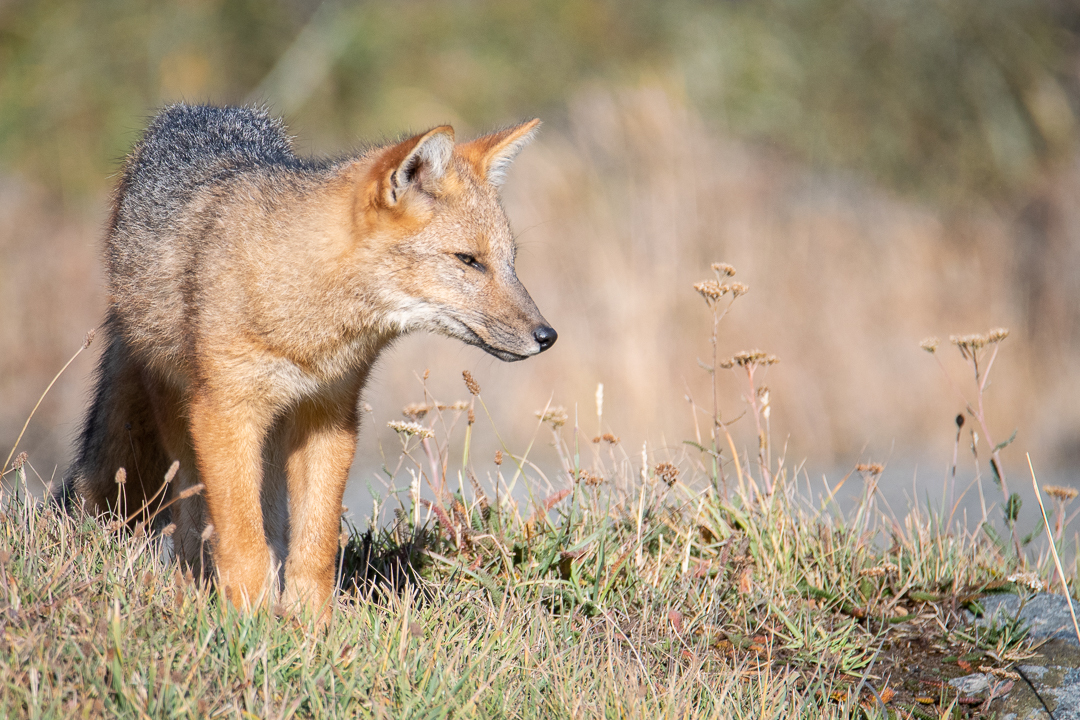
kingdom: Animalia
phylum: Chordata
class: Mammalia
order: Carnivora
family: Canidae
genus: Lycalopex
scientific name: Lycalopex culpaeus
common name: Culpeo
